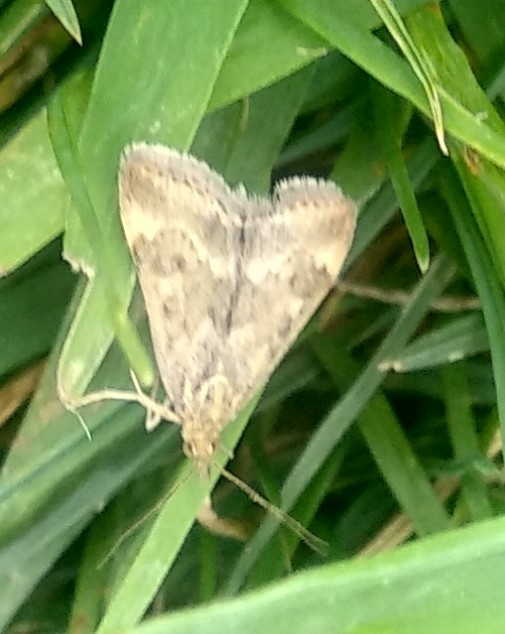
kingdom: Animalia
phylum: Arthropoda
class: Insecta
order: Lepidoptera
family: Crambidae
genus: Pyrausta
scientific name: Pyrausta despicata
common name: Straw-barred pearl
